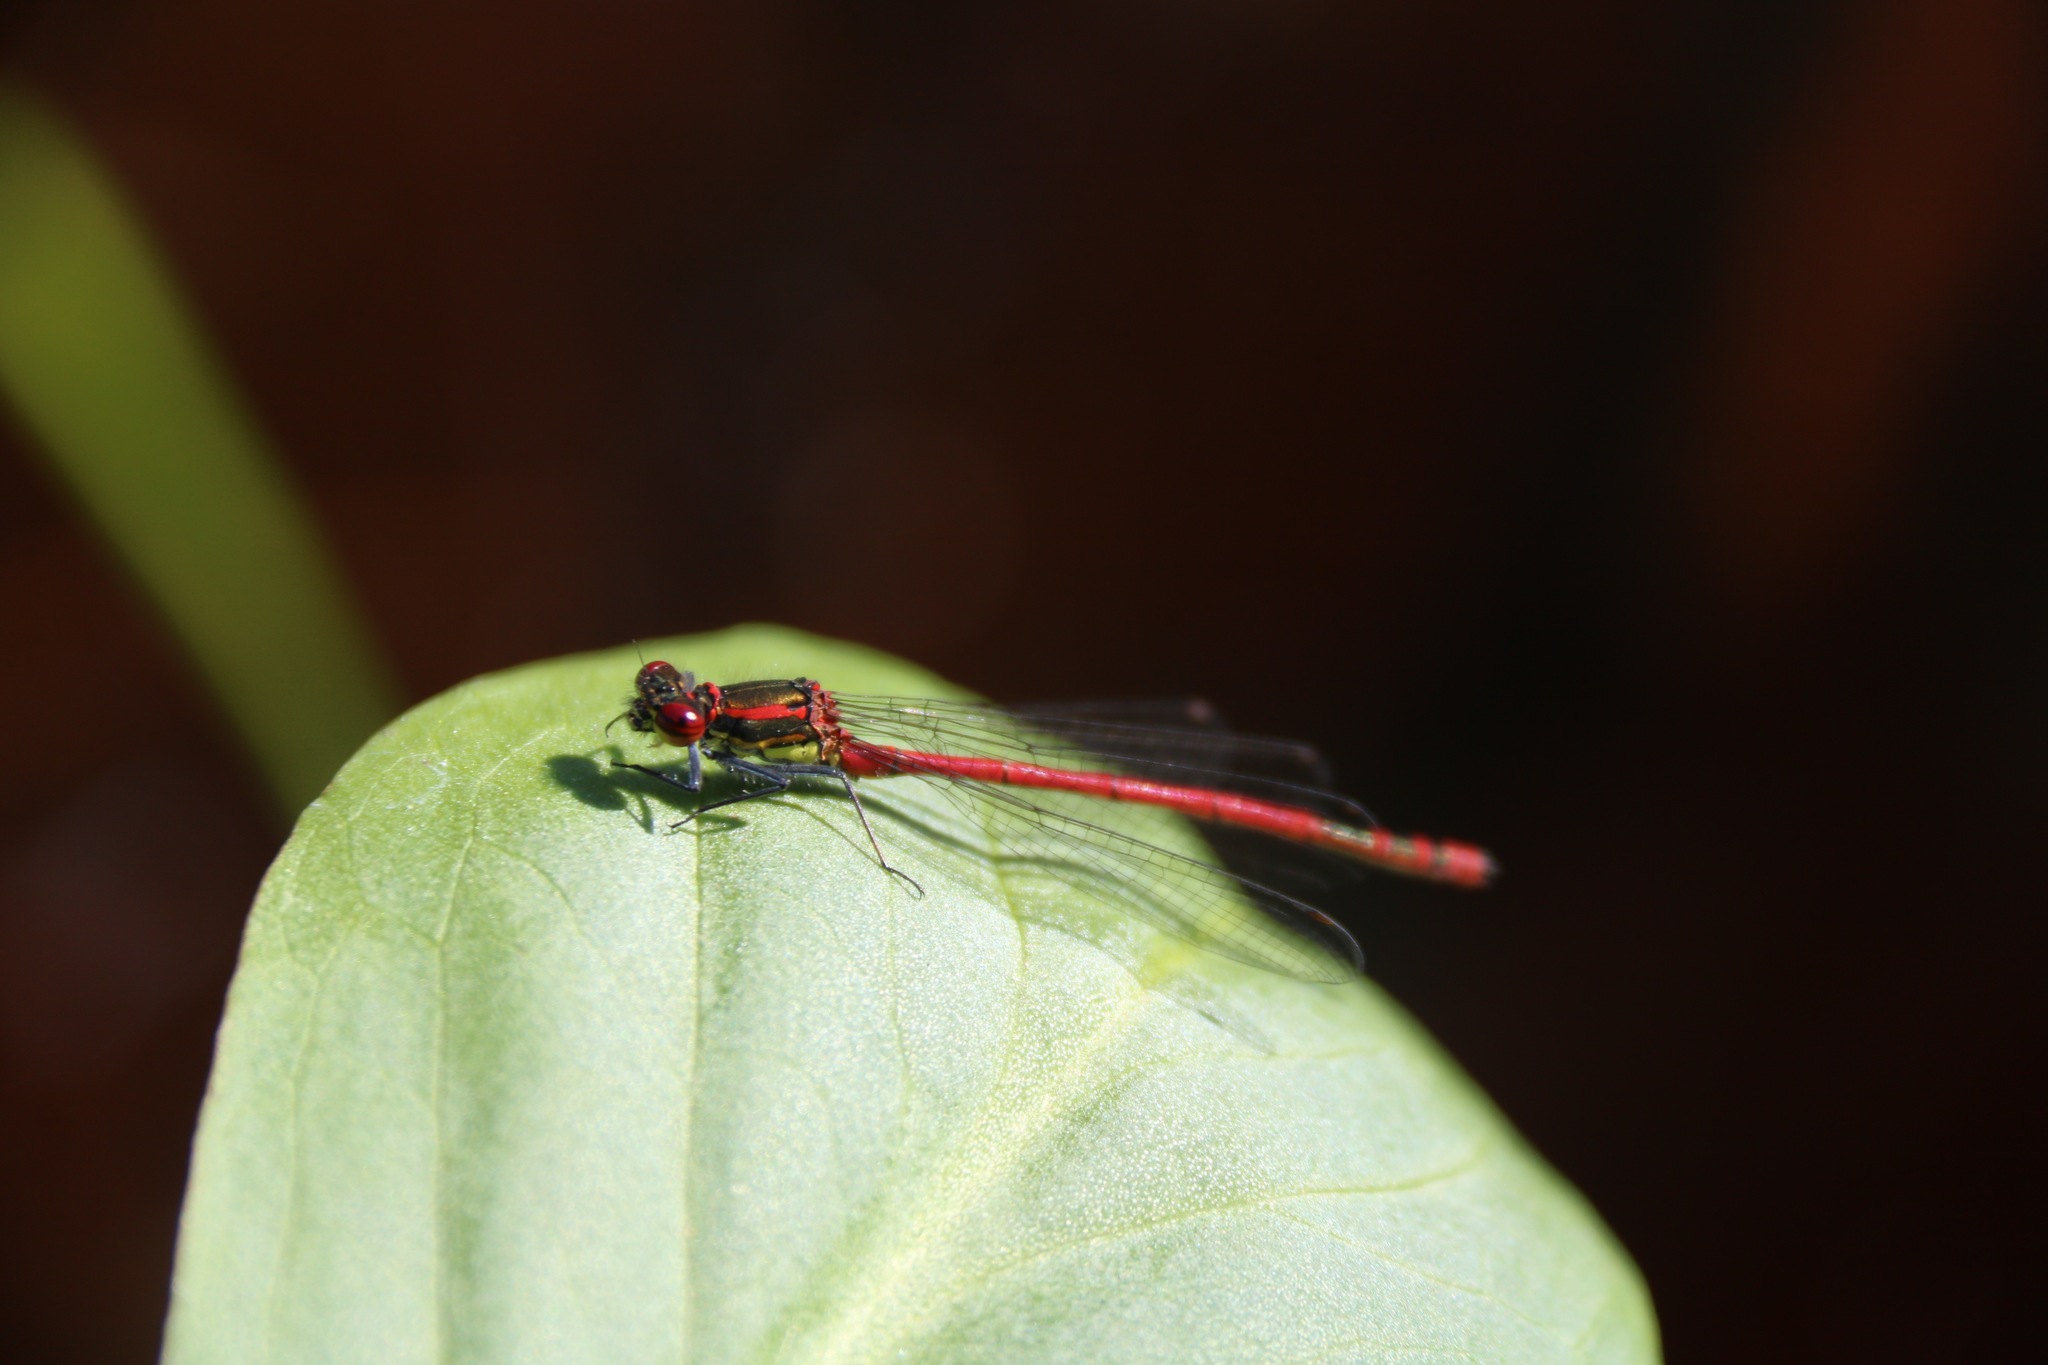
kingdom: Animalia
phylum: Arthropoda
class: Insecta
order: Odonata
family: Coenagrionidae
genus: Pyrrhosoma
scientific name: Pyrrhosoma nymphula
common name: Large red damsel
